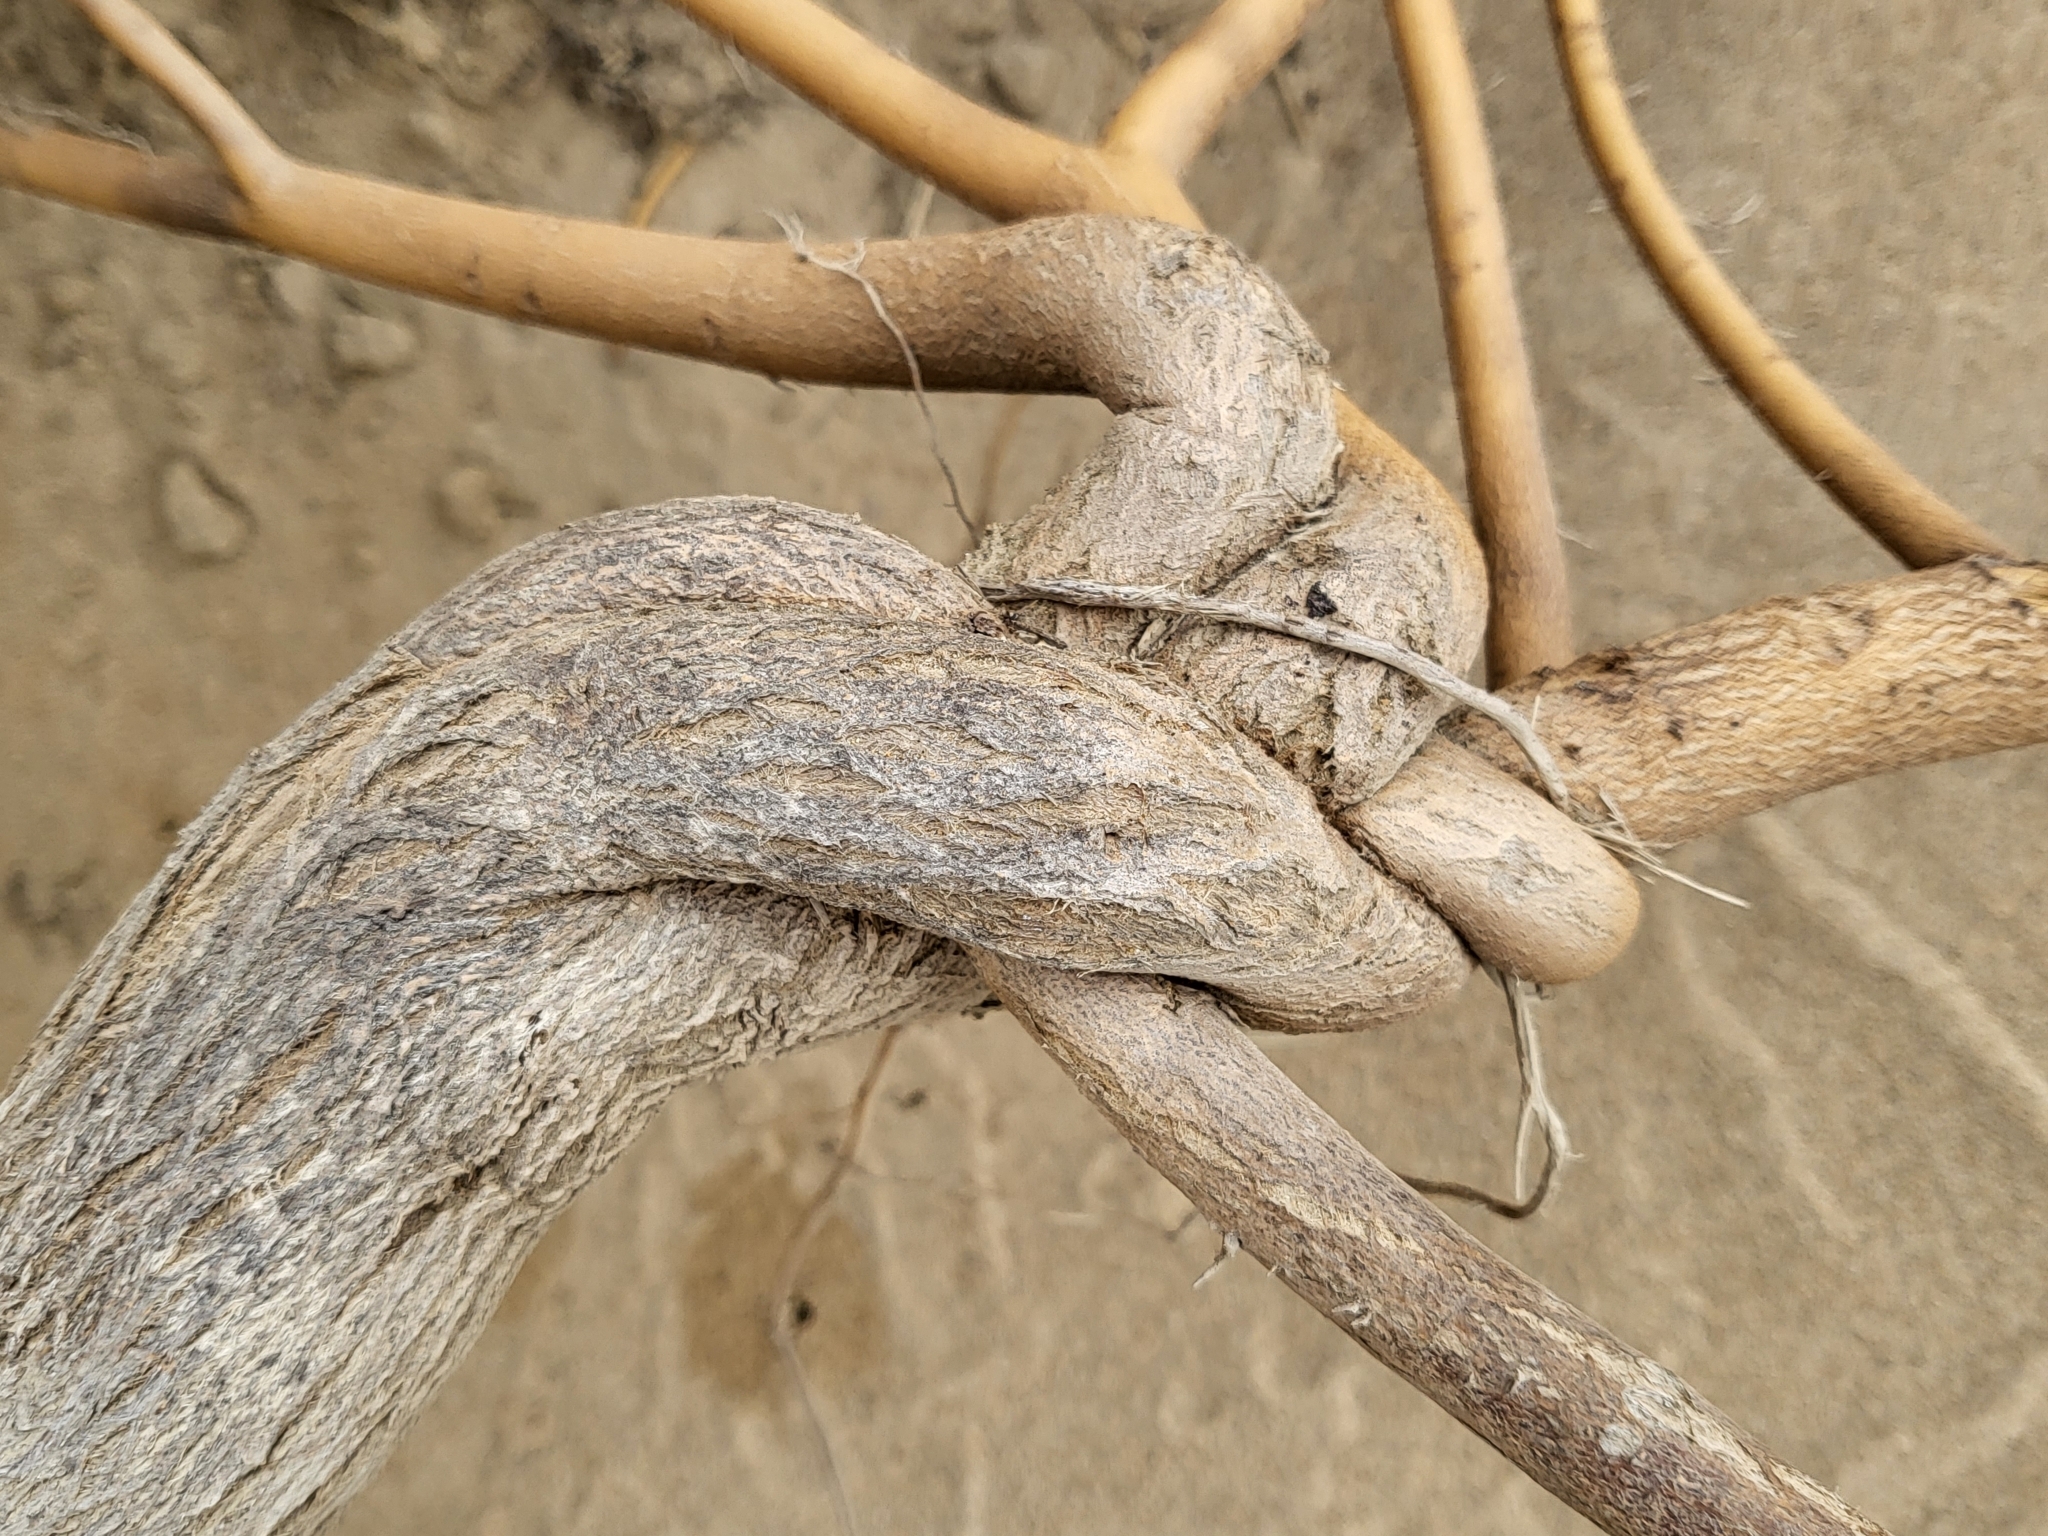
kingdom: Plantae
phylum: Tracheophyta
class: Magnoliopsida
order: Fabales
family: Fabaceae
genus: Lupinus
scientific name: Lupinus chamissonis
